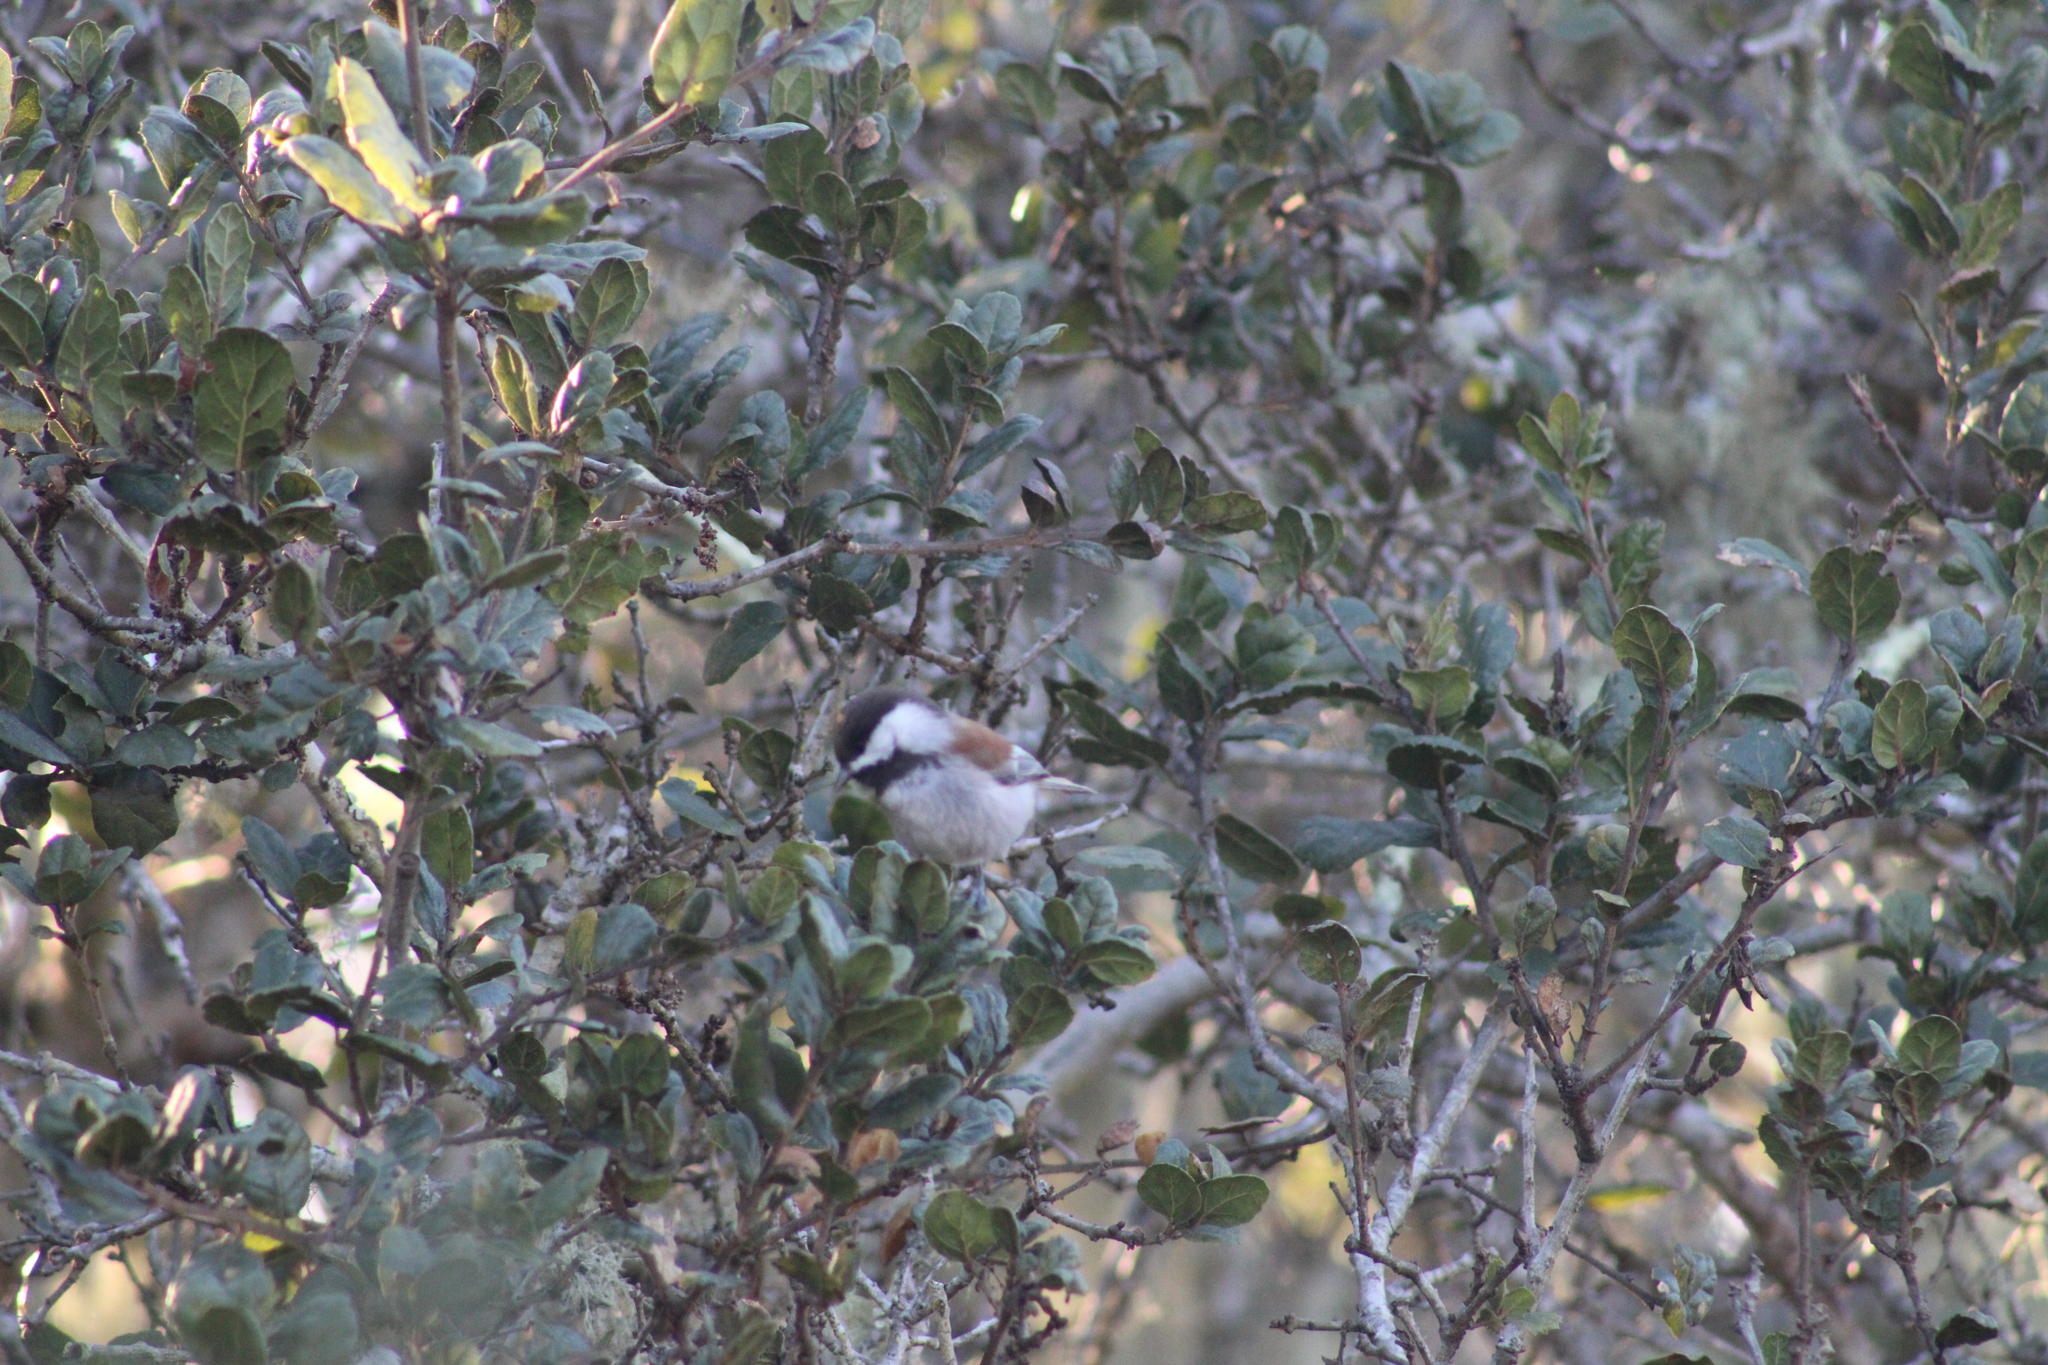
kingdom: Animalia
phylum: Chordata
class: Aves
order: Passeriformes
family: Paridae
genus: Poecile
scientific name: Poecile rufescens
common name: Chestnut-backed chickadee
